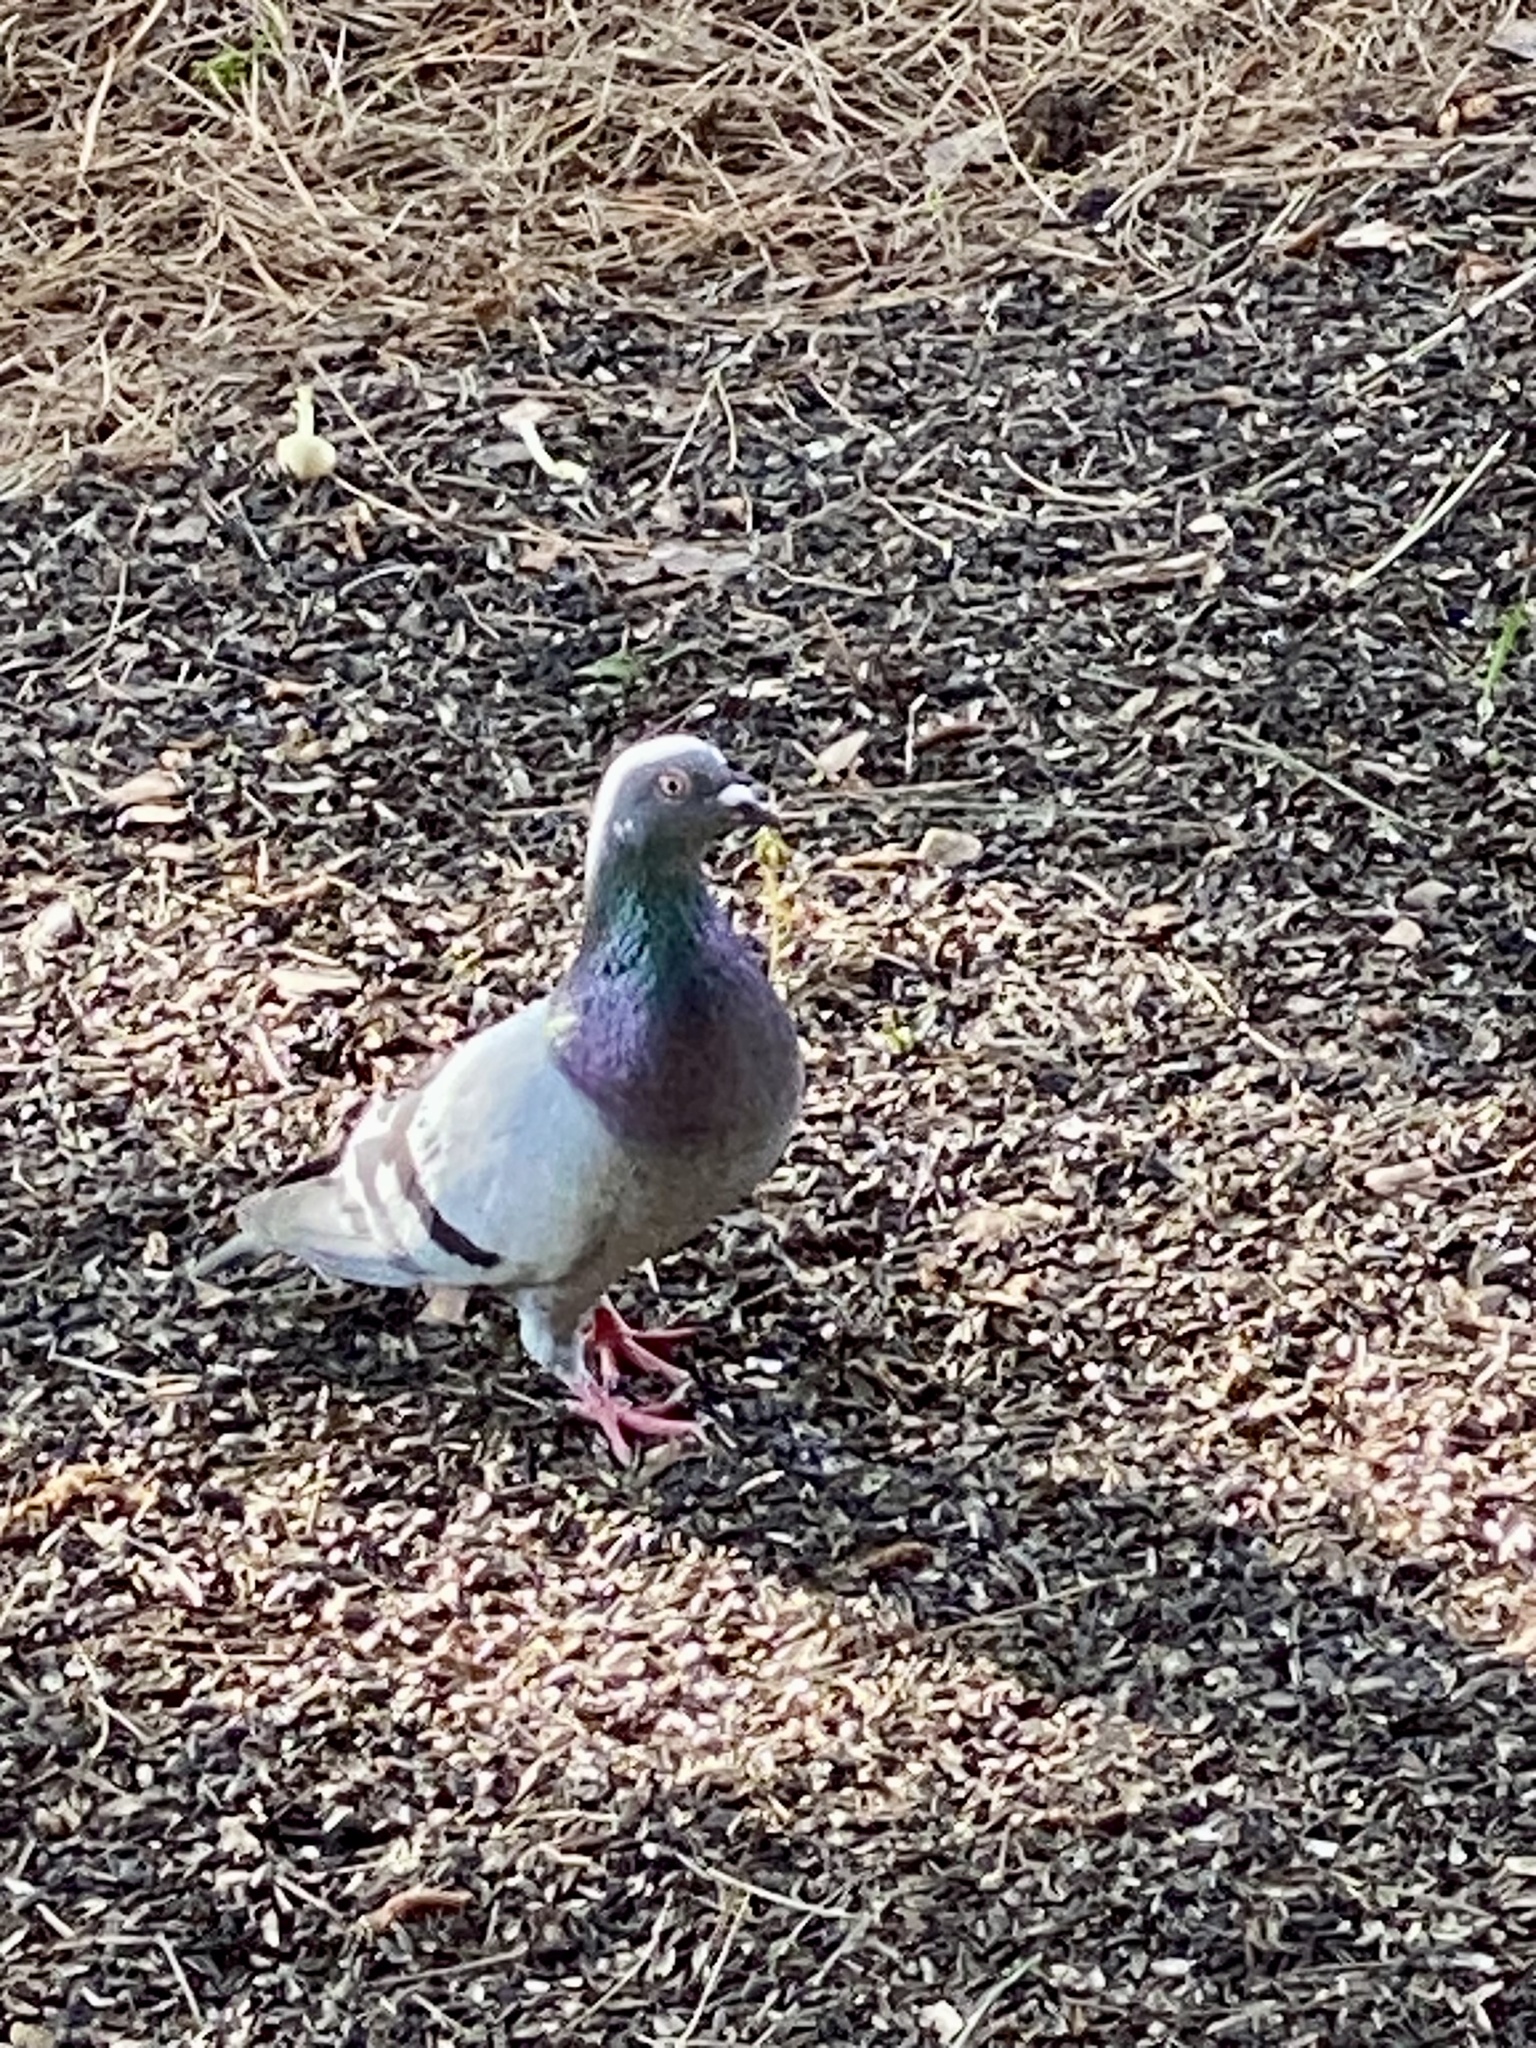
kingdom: Animalia
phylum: Chordata
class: Aves
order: Columbiformes
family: Columbidae
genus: Columba
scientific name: Columba livia
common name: Rock pigeon
